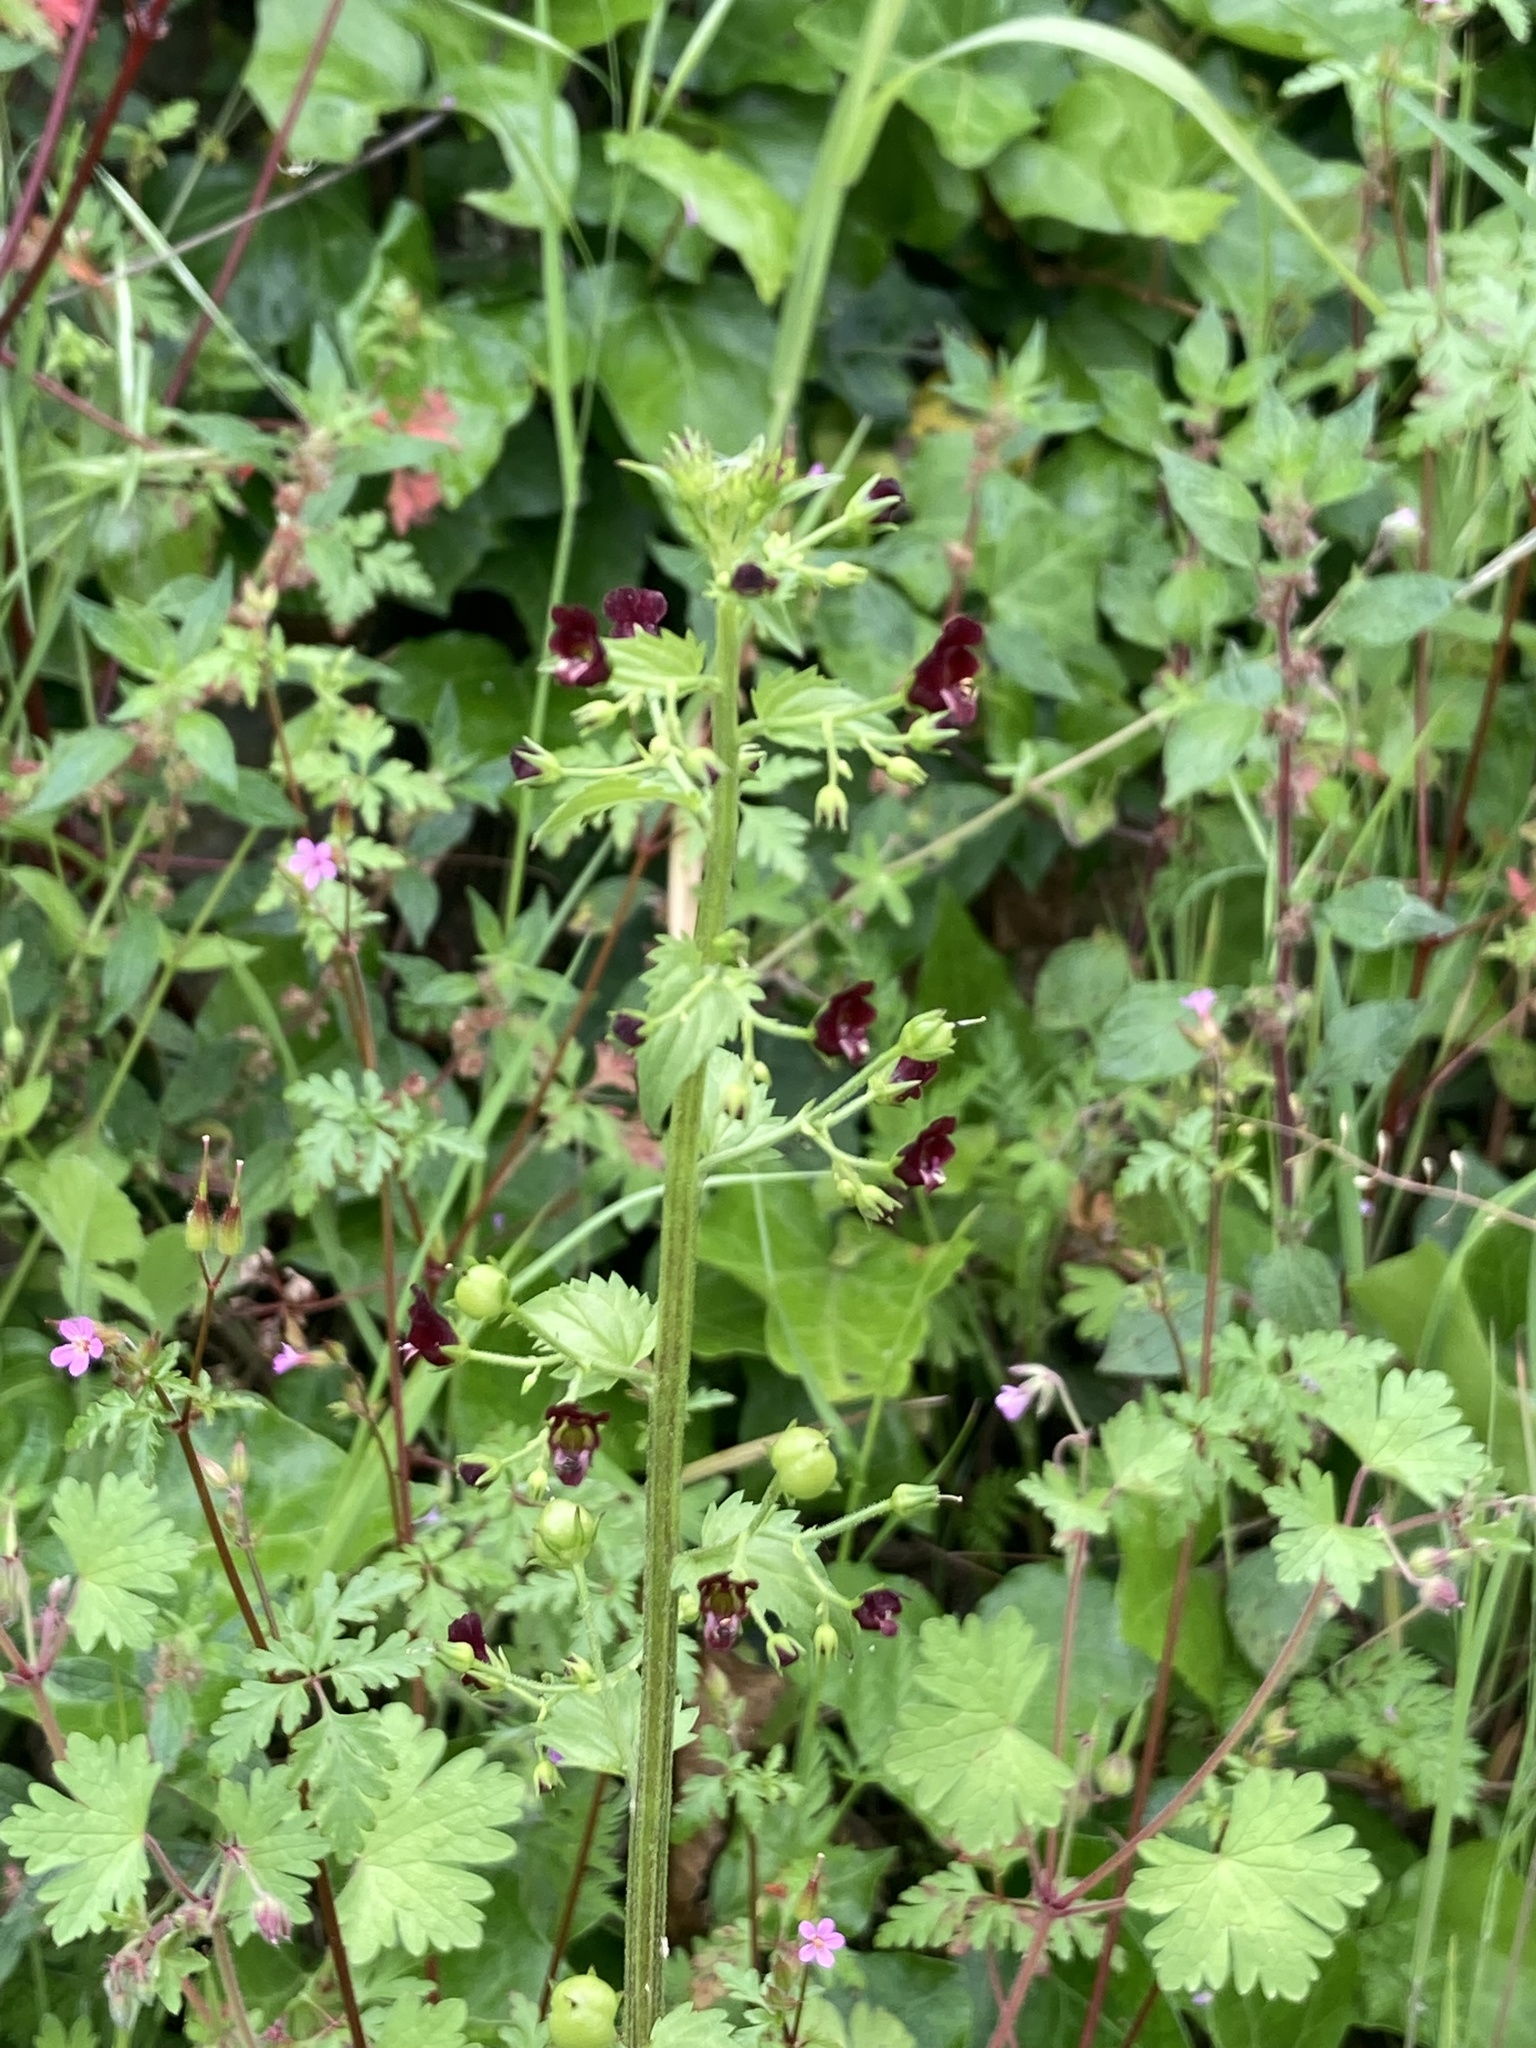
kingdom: Plantae
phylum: Tracheophyta
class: Magnoliopsida
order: Lamiales
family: Scrophulariaceae
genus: Scrophularia
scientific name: Scrophularia peregrina
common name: Mediterranean figwort
